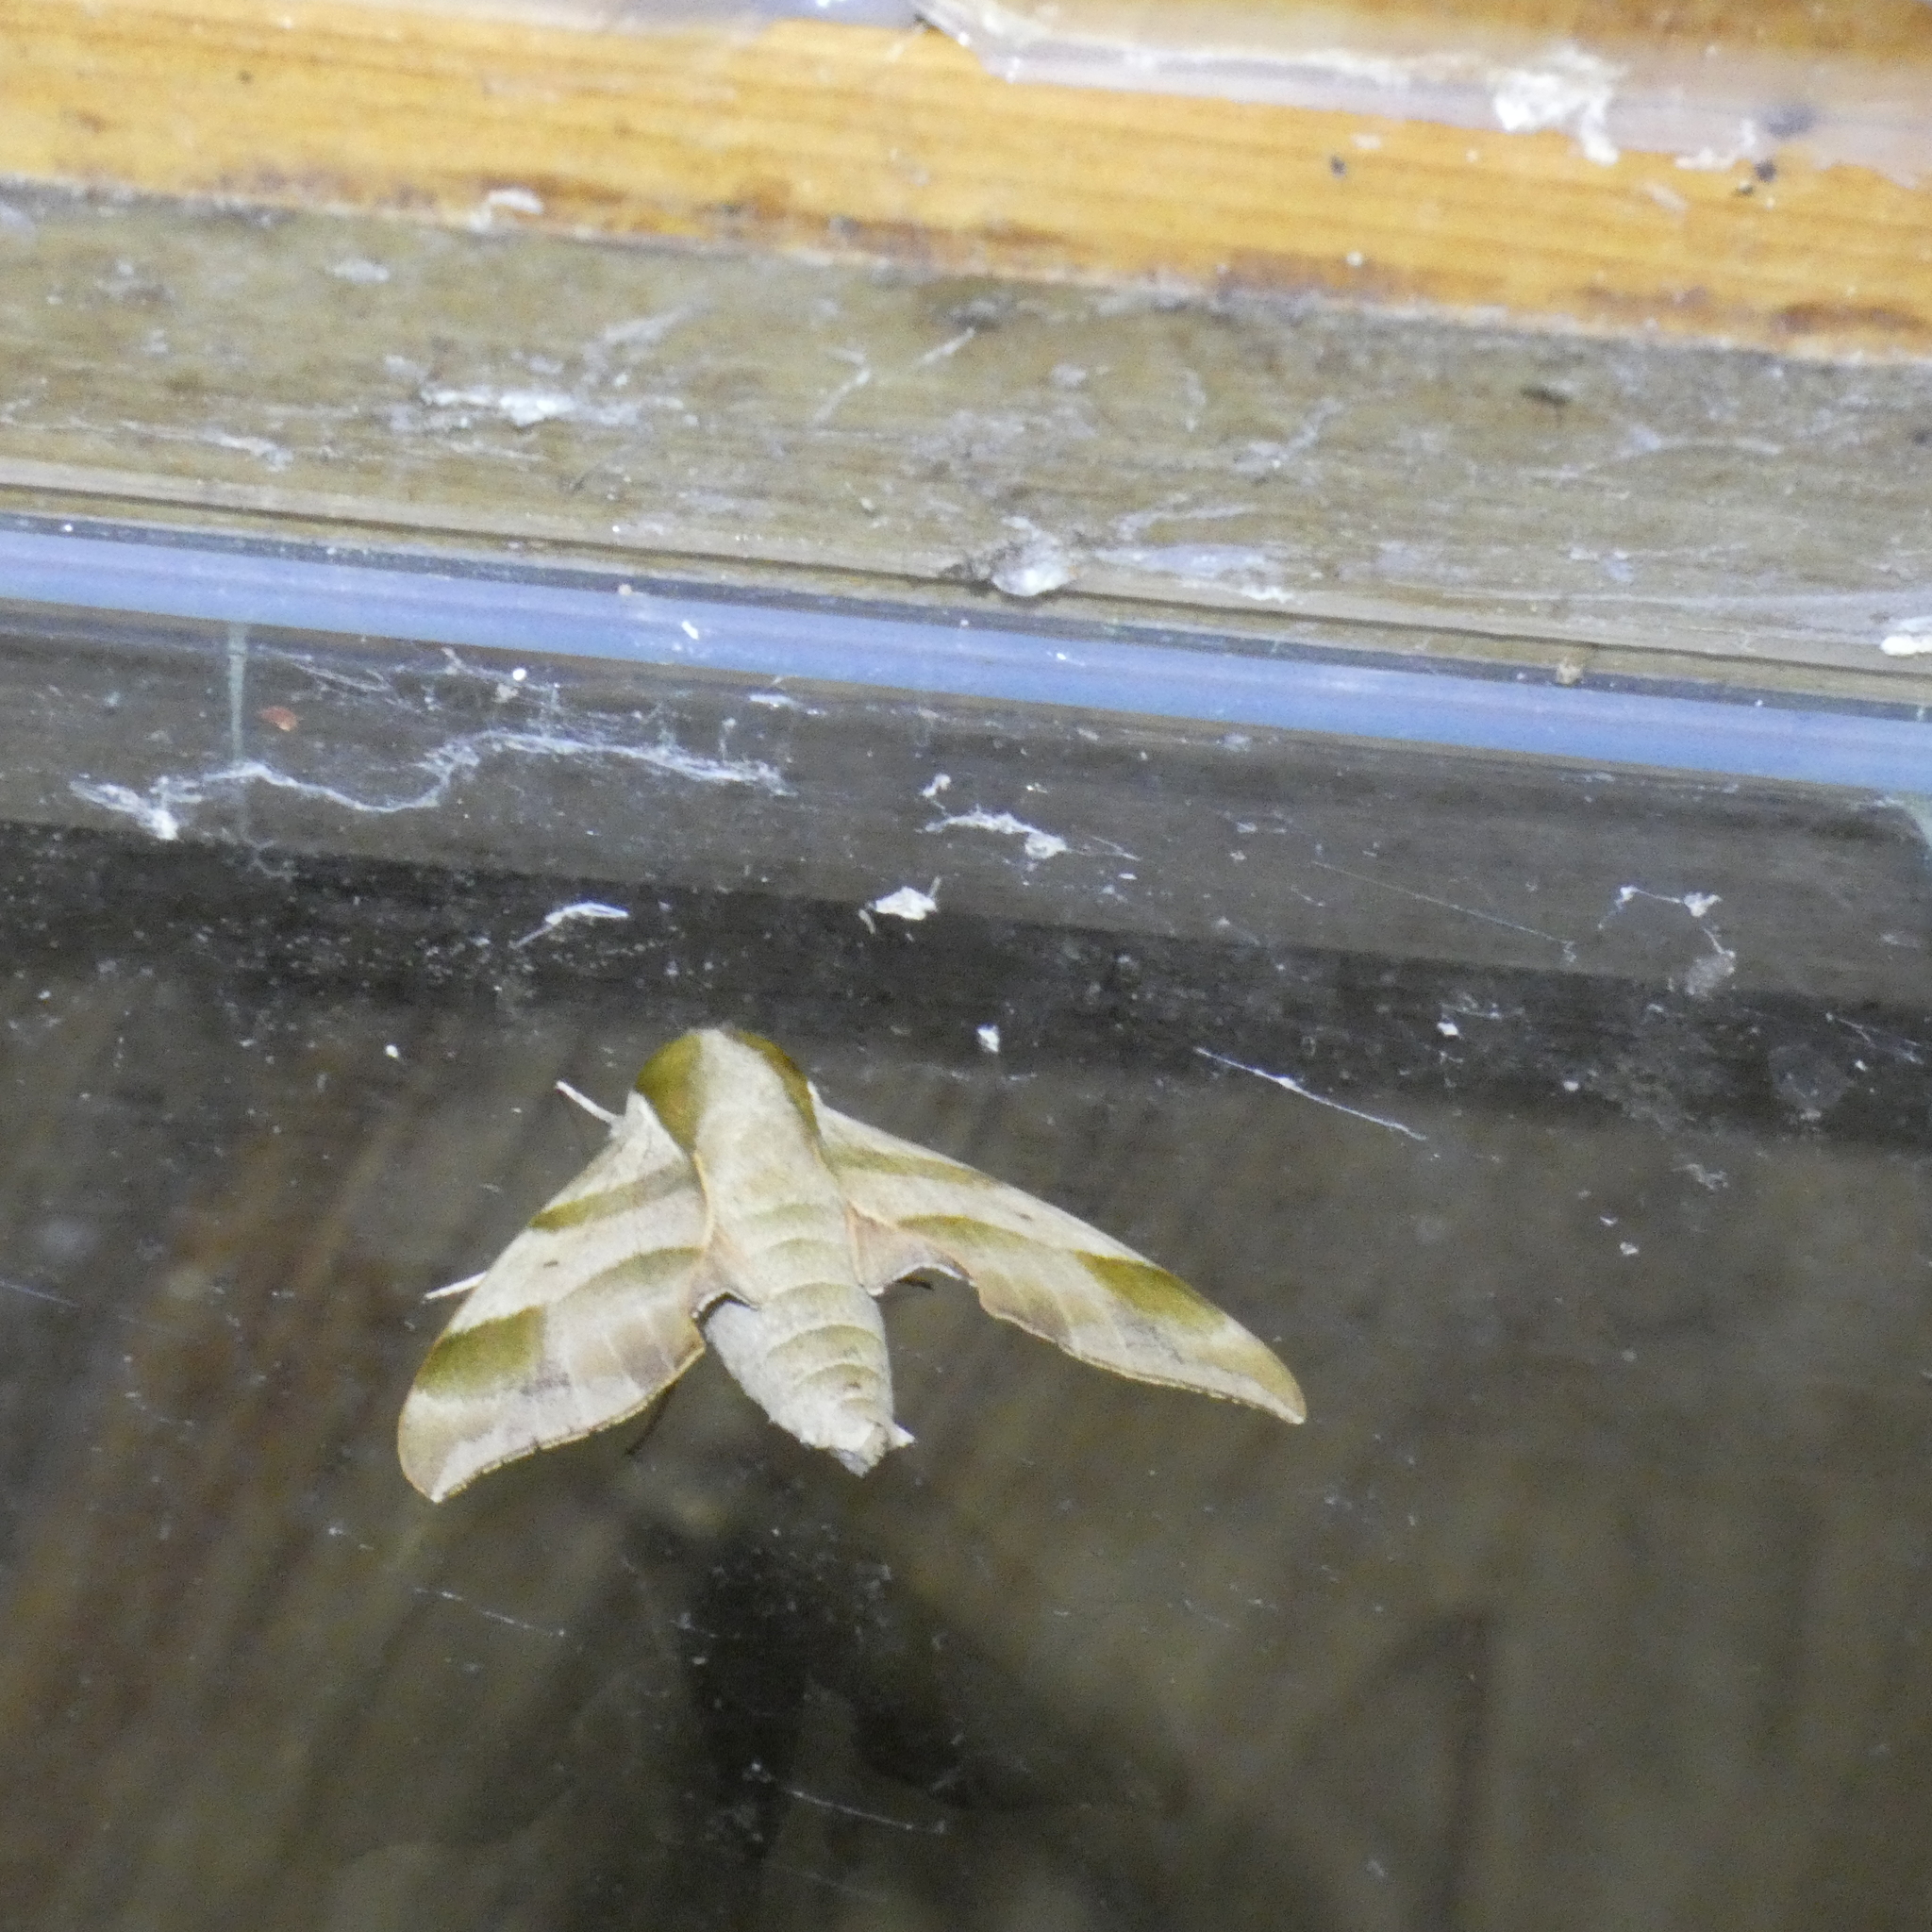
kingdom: Animalia
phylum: Arthropoda
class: Insecta
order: Lepidoptera
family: Sphingidae
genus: Darapsa
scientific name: Darapsa myron
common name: Hog sphinx
